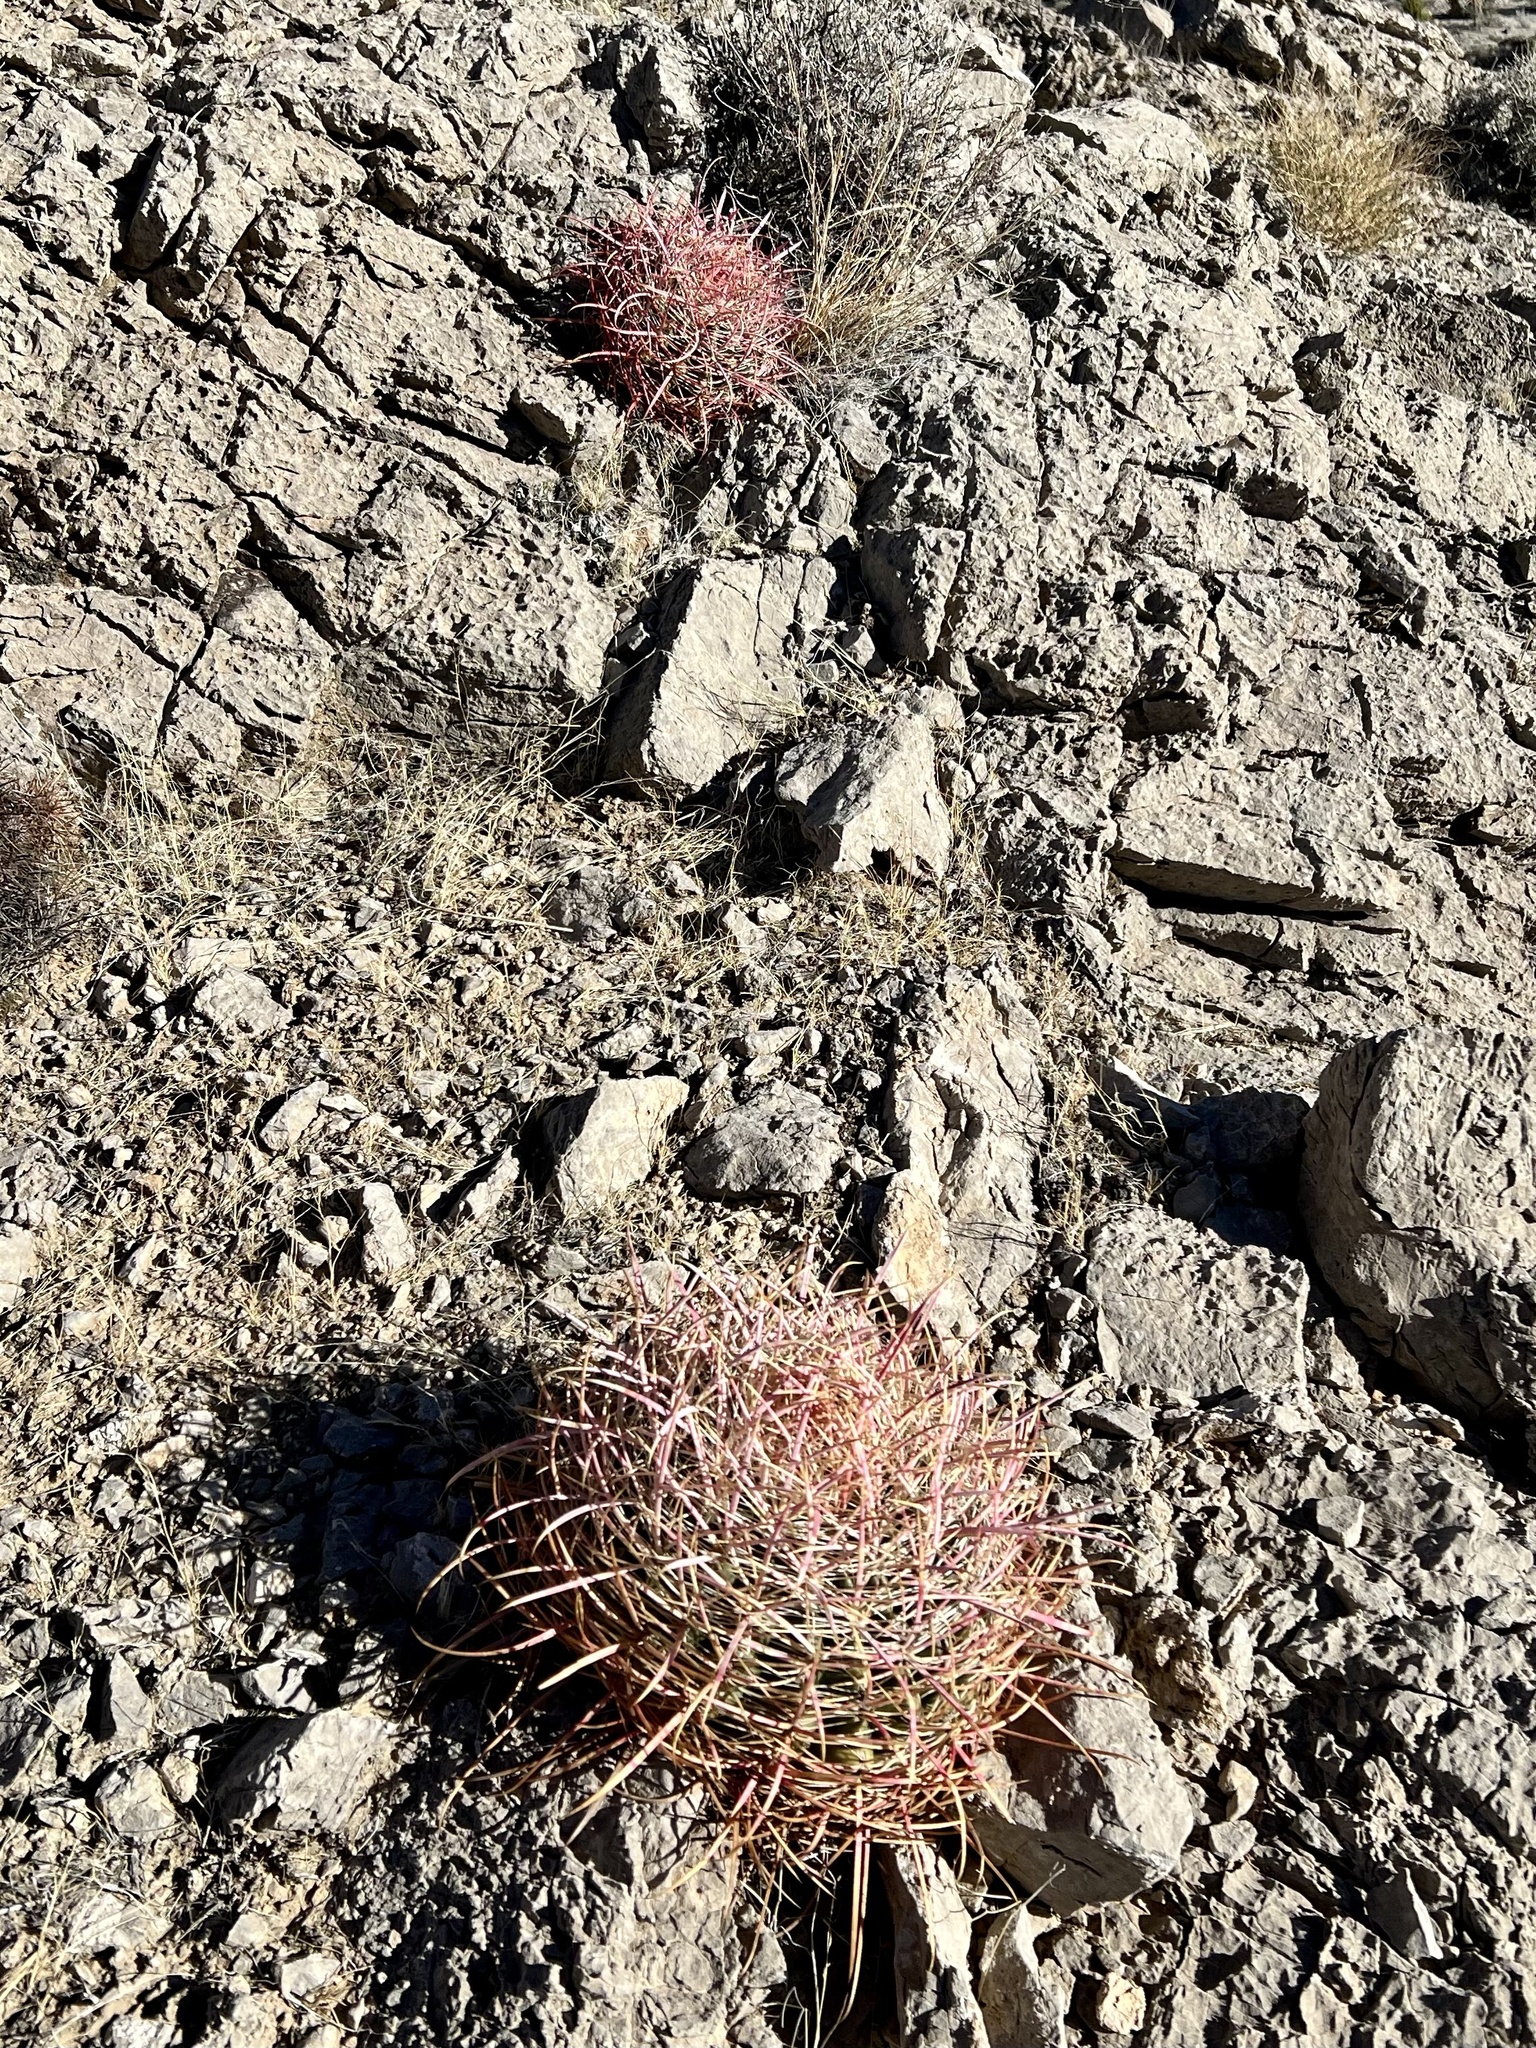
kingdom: Plantae
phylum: Tracheophyta
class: Magnoliopsida
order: Caryophyllales
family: Cactaceae
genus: Ferocactus
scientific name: Ferocactus cylindraceus
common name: California barrel cactus
